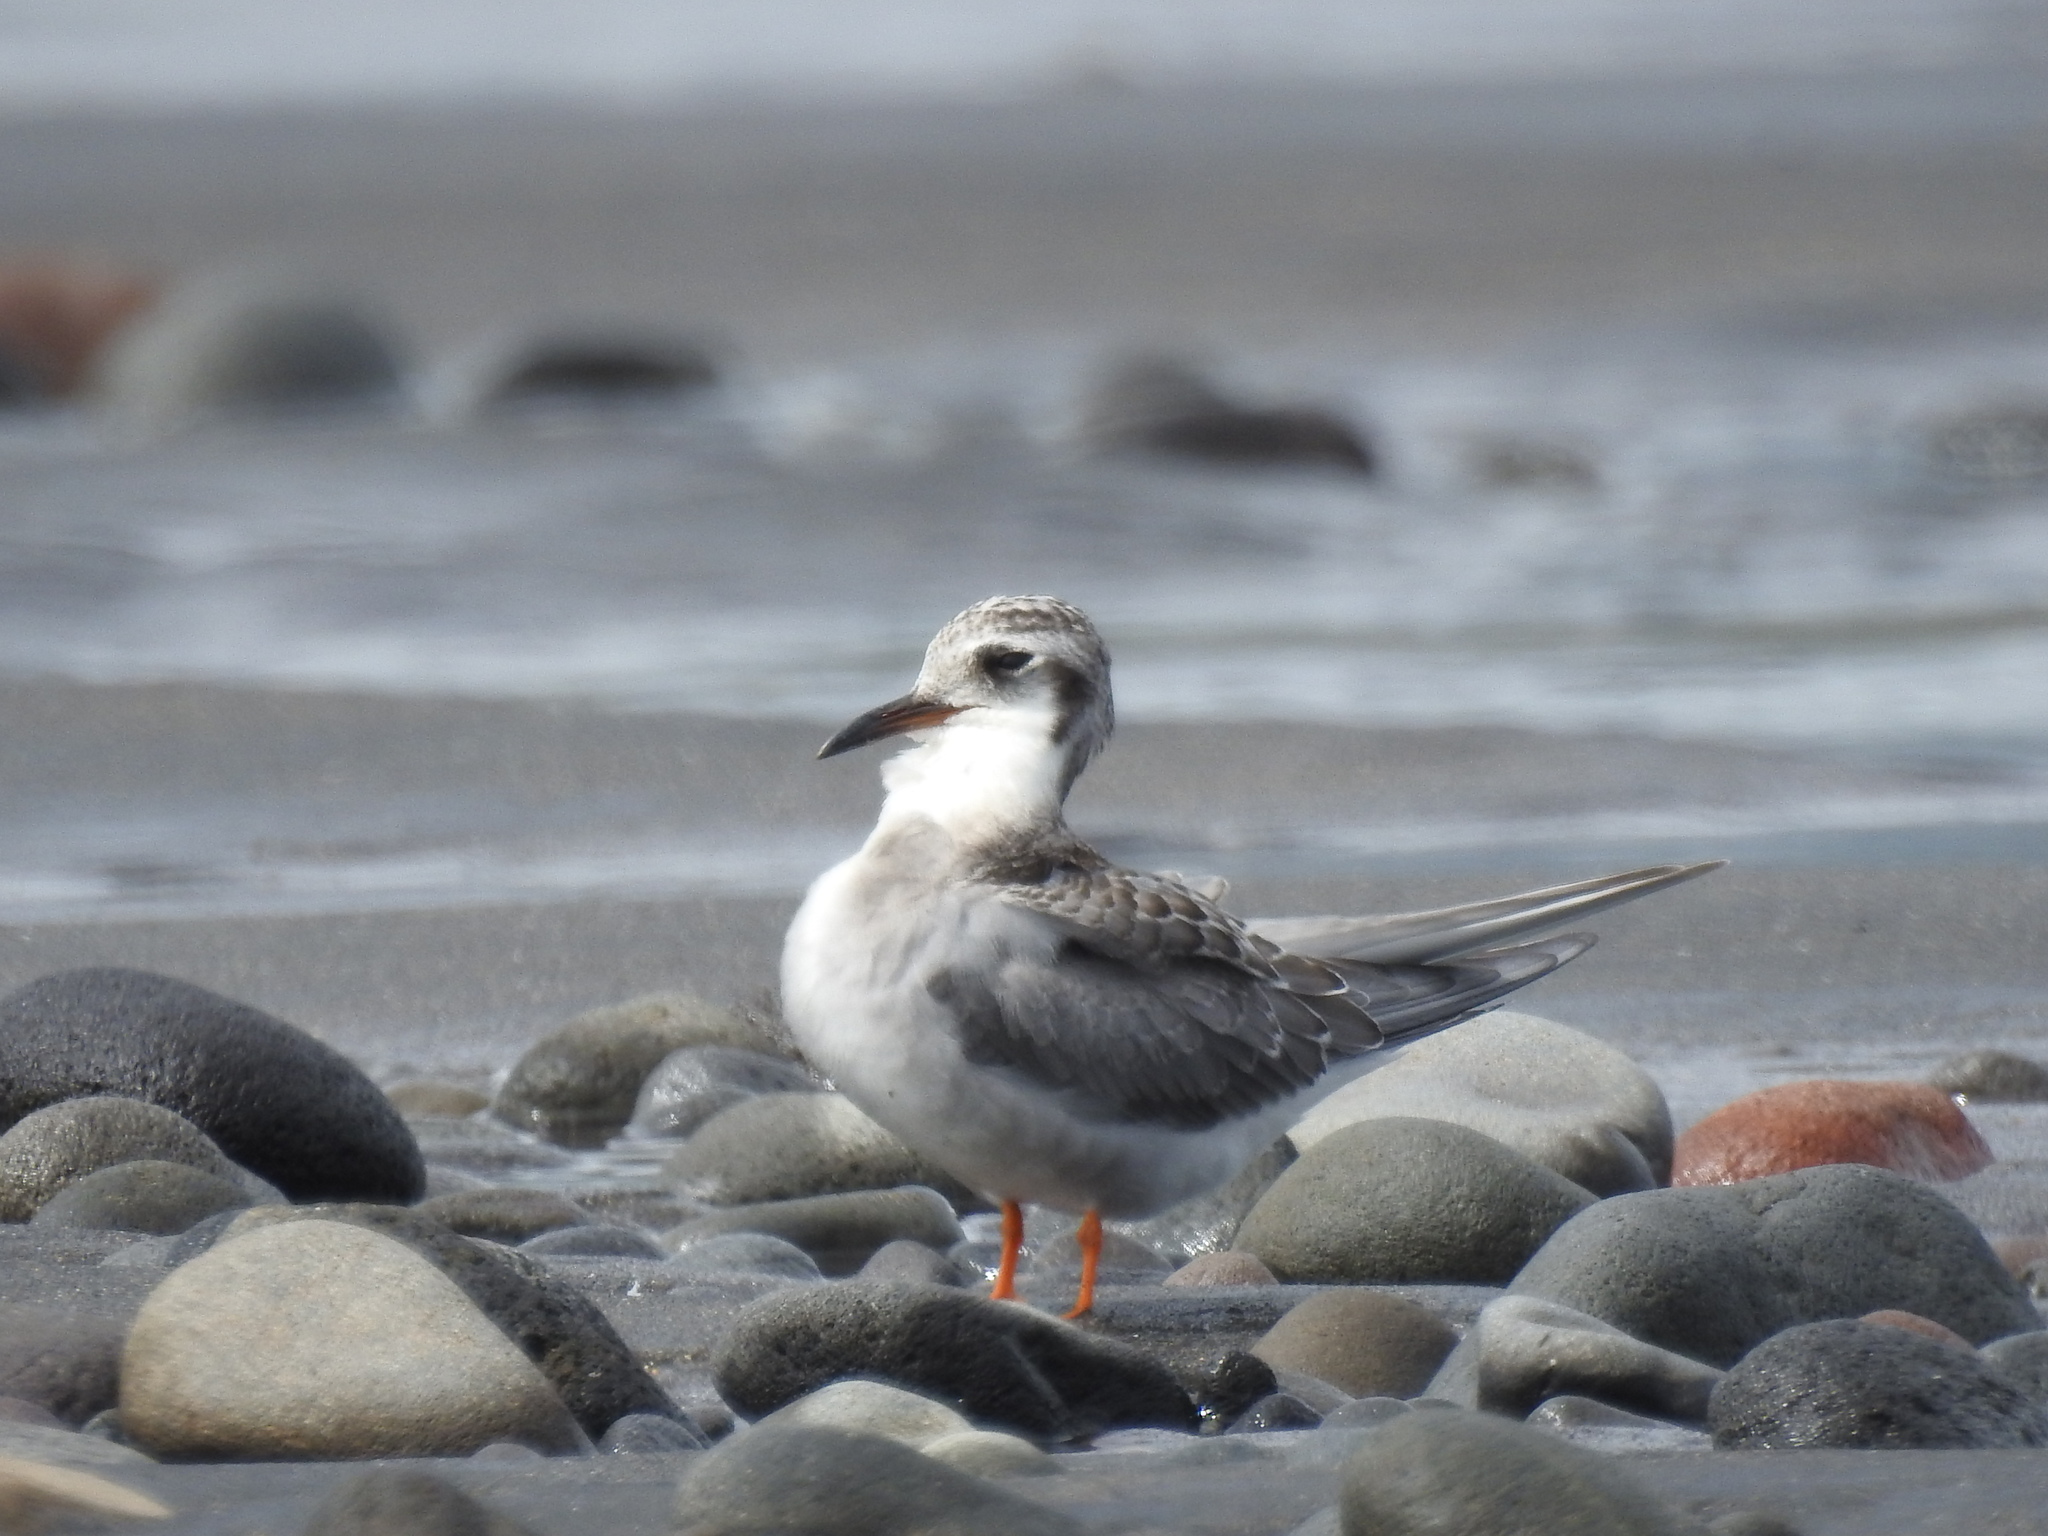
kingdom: Animalia
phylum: Chordata
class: Aves
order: Charadriiformes
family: Laridae
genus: Chlidonias
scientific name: Chlidonias albostriatus
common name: Black-fronted tern
